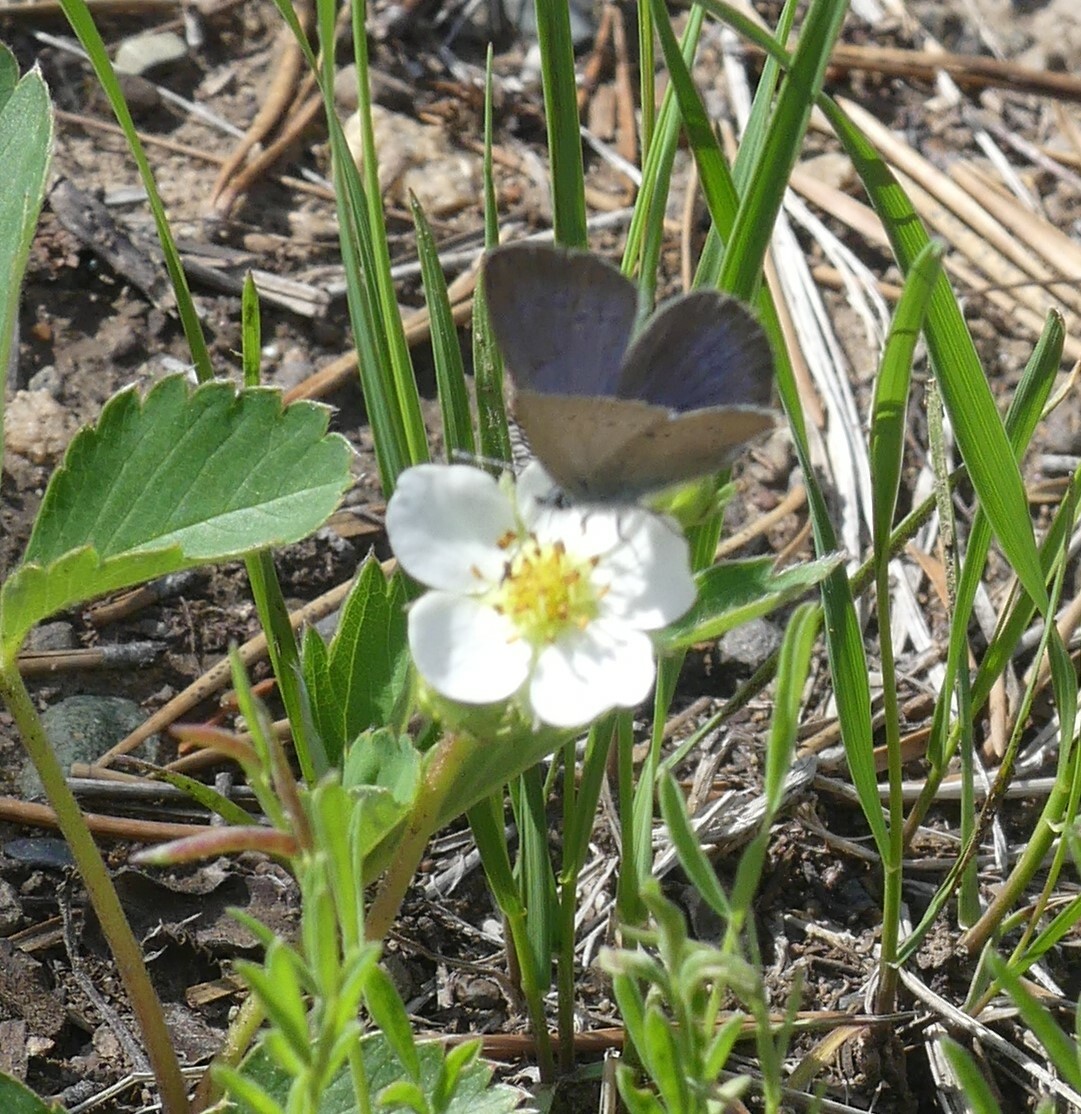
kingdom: Animalia
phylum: Arthropoda
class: Insecta
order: Lepidoptera
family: Lycaenidae
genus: Glaucopsyche
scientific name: Glaucopsyche lygdamus
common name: Silvery blue
